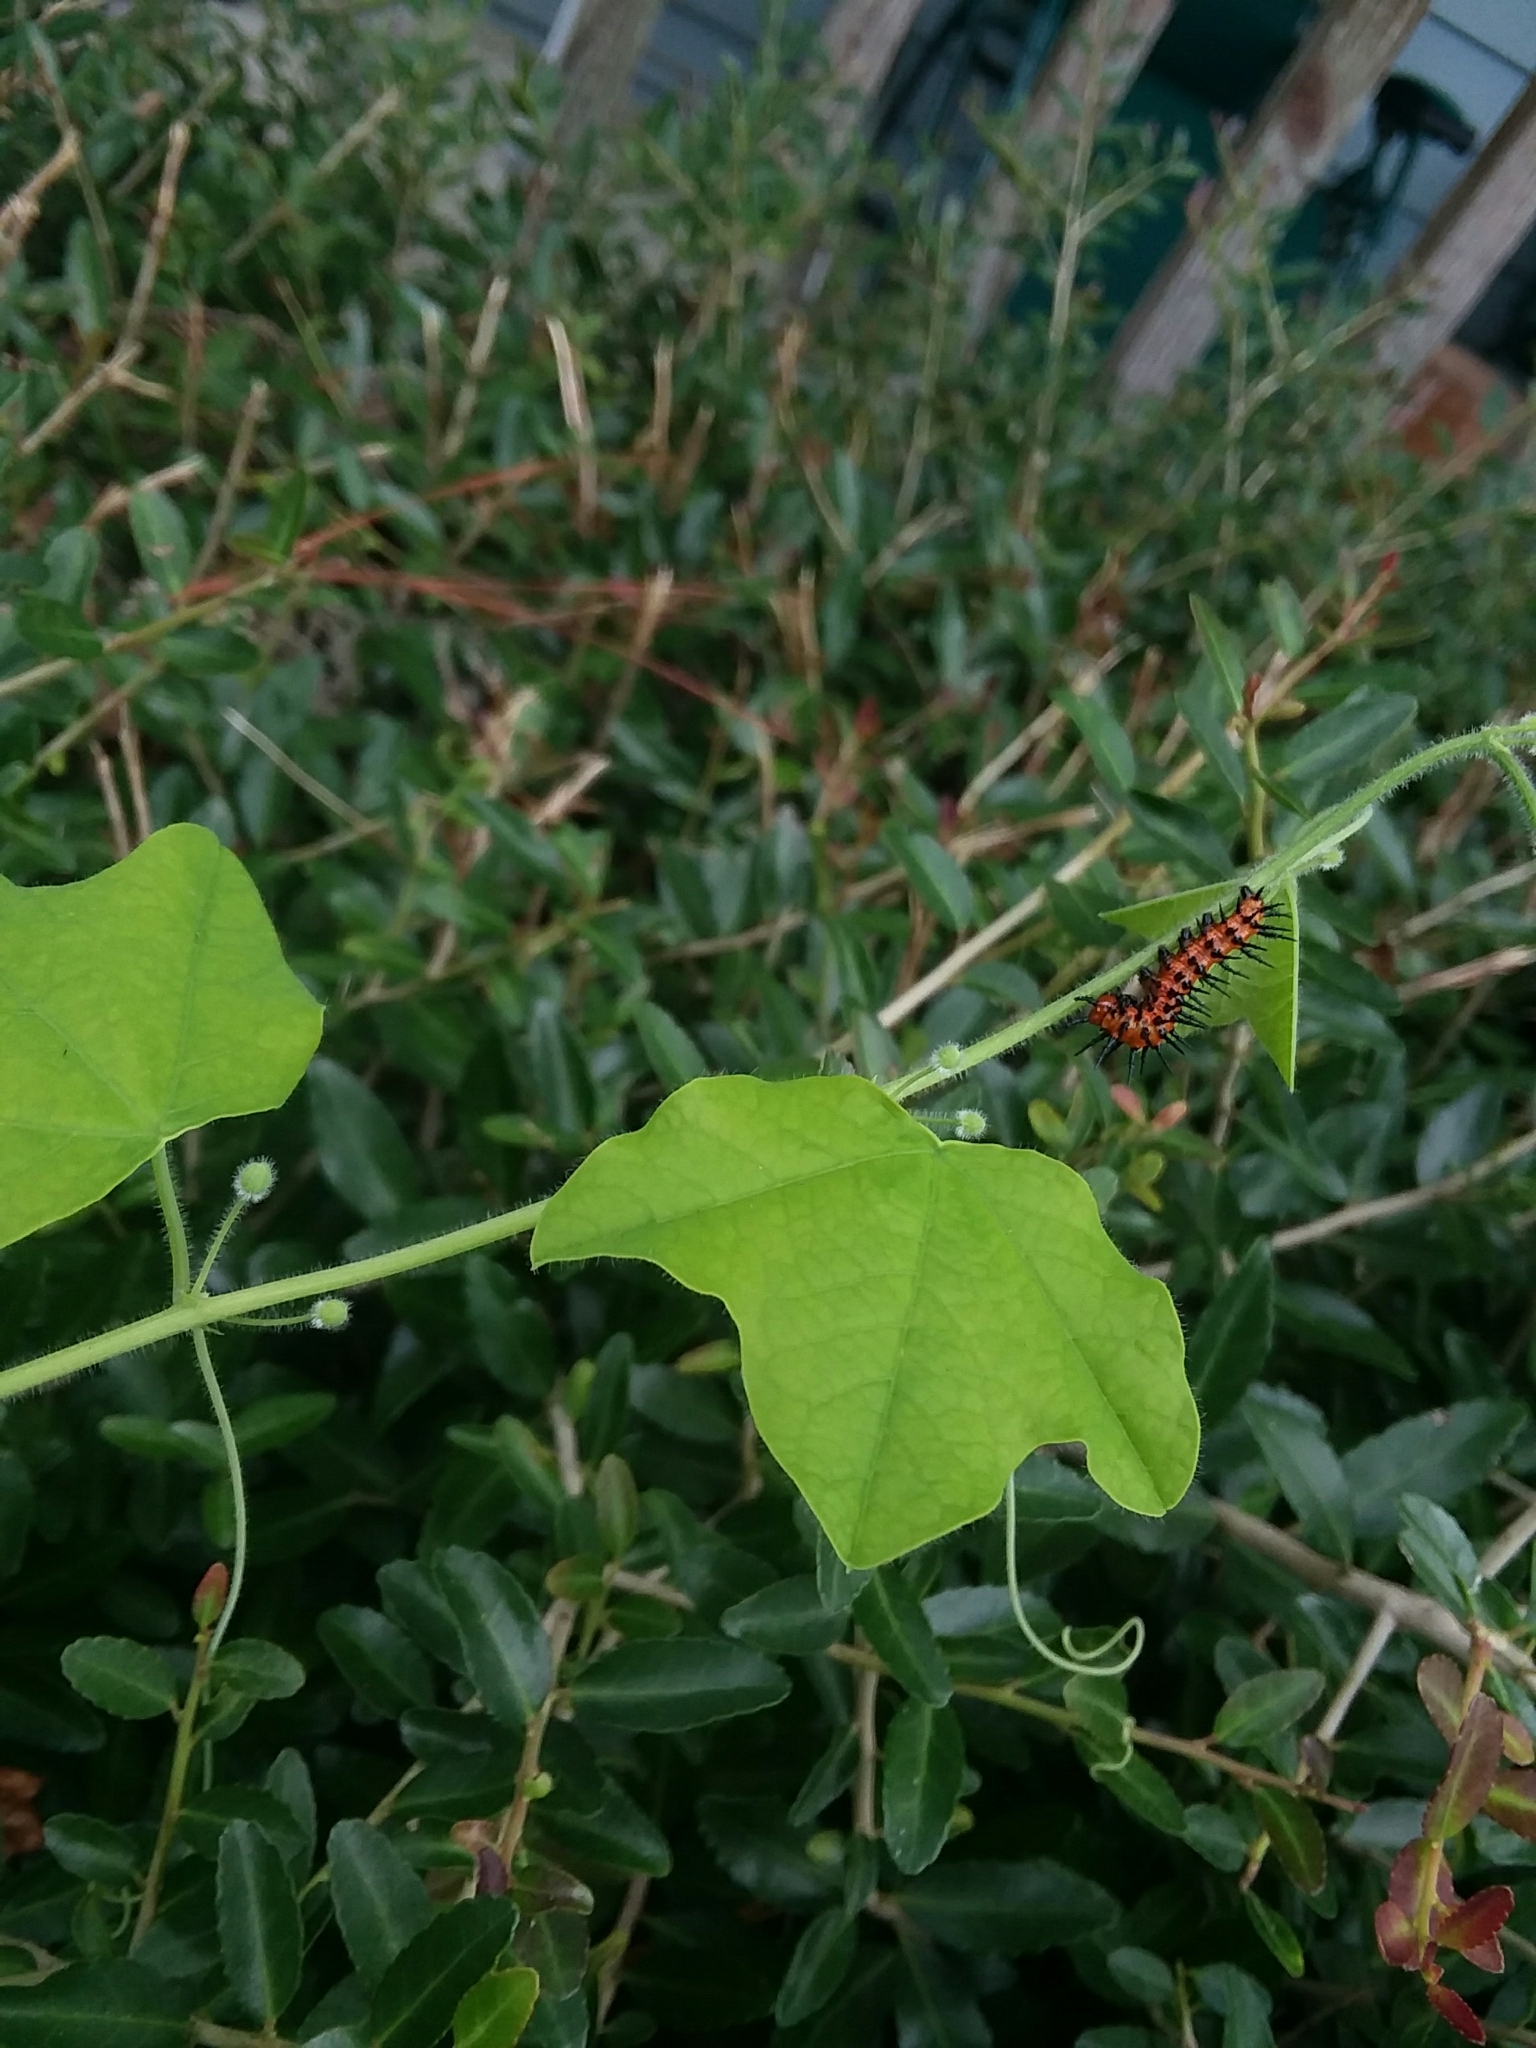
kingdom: Animalia
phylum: Arthropoda
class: Insecta
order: Lepidoptera
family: Nymphalidae
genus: Dione
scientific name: Dione vanillae
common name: Gulf fritillary
